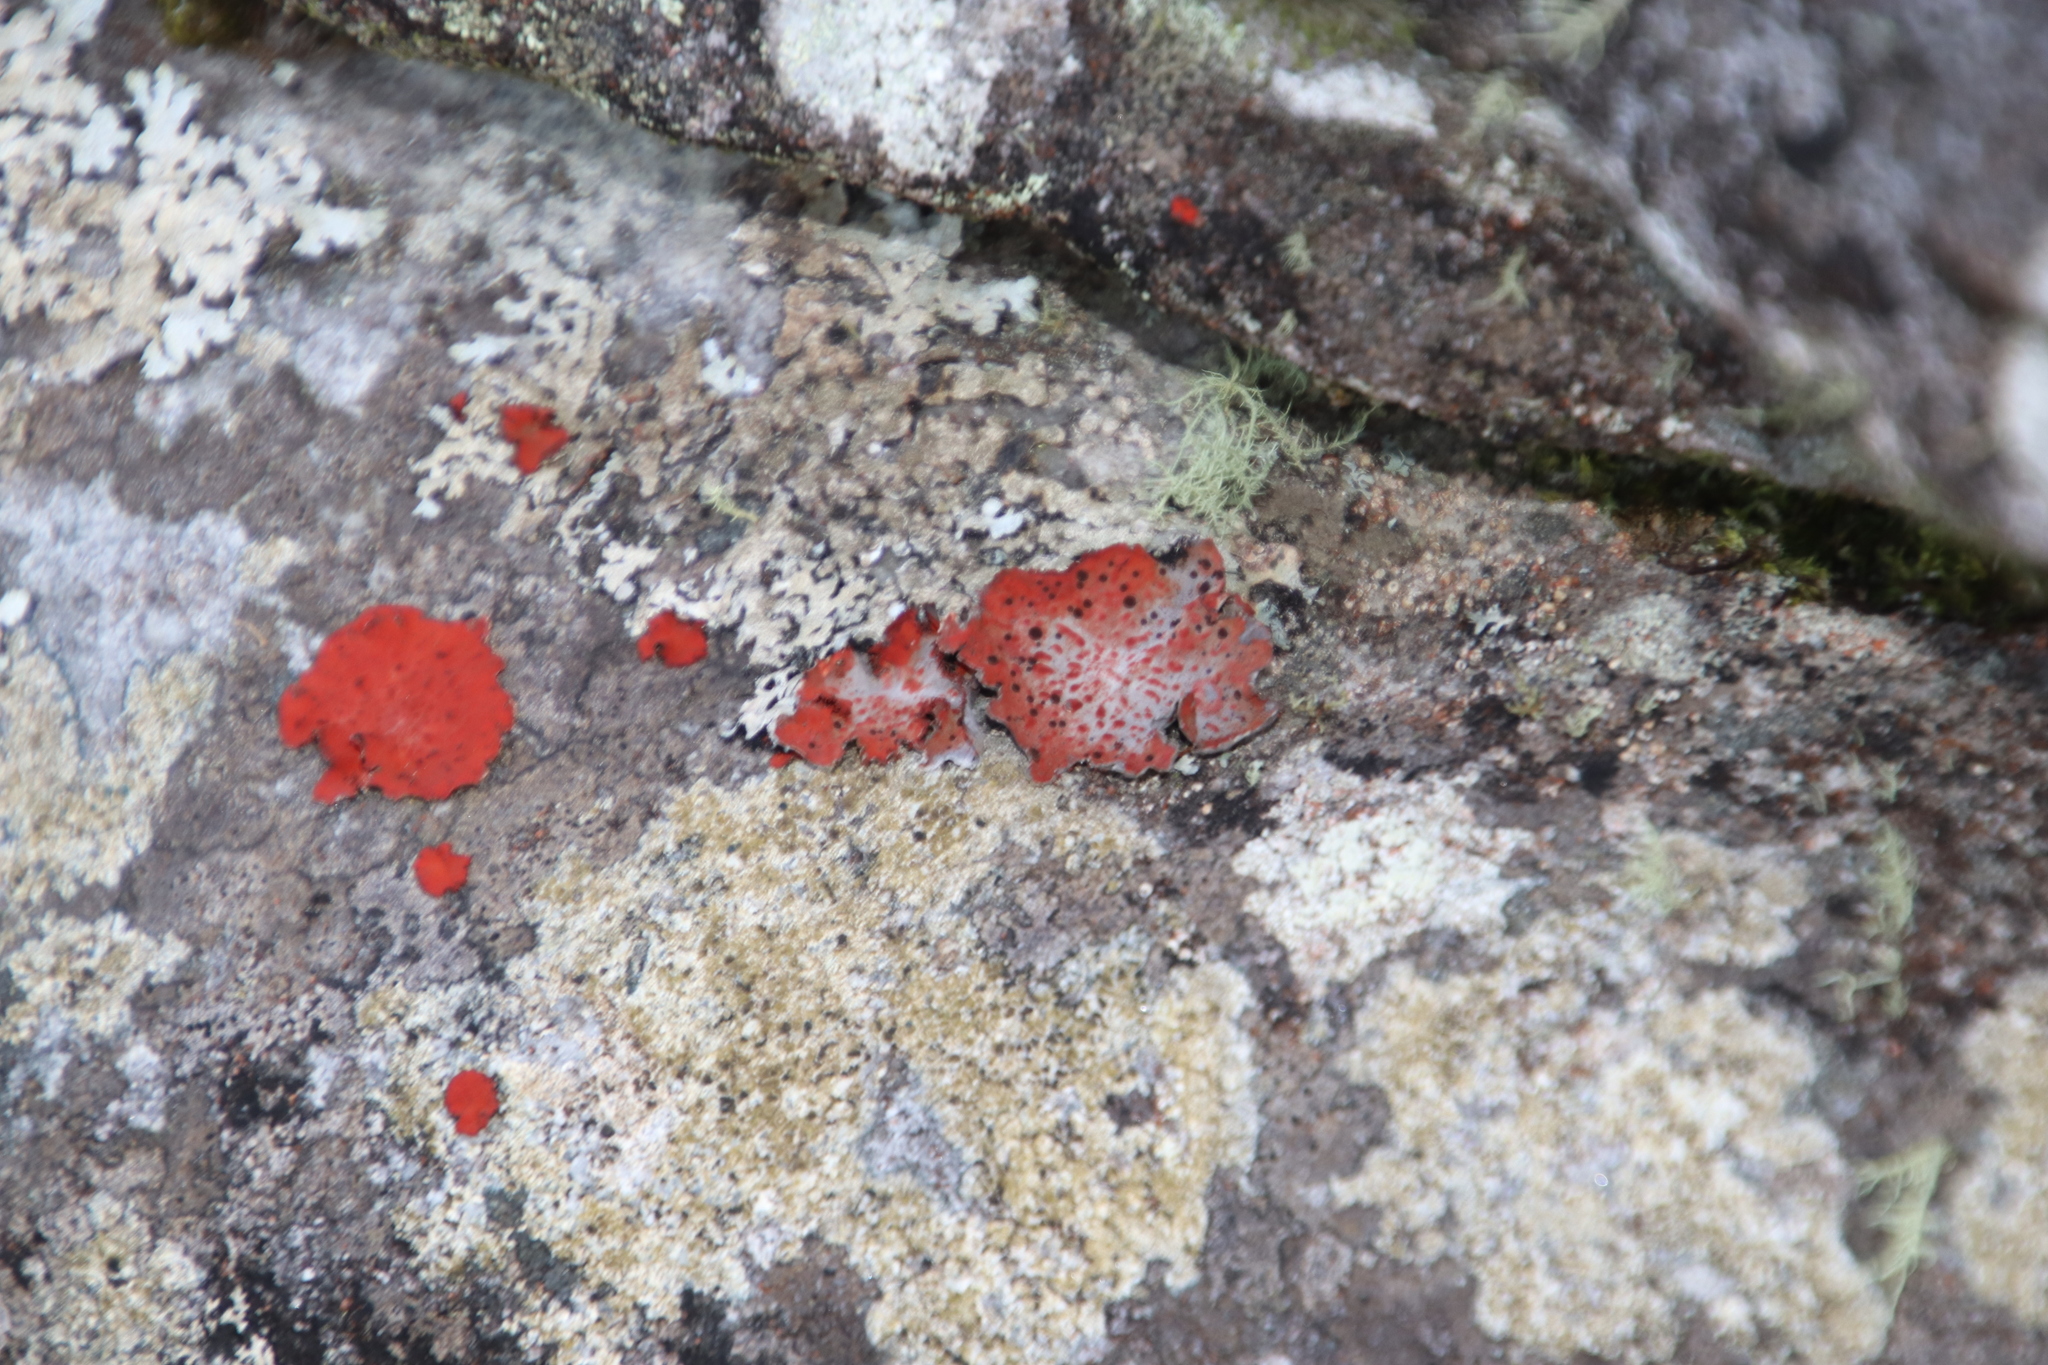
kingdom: Fungi
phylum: Ascomycota
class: Lecanoromycetes
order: Umbilicariales
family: Umbilicariaceae
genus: Lasallia
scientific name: Lasallia rubiginosa
